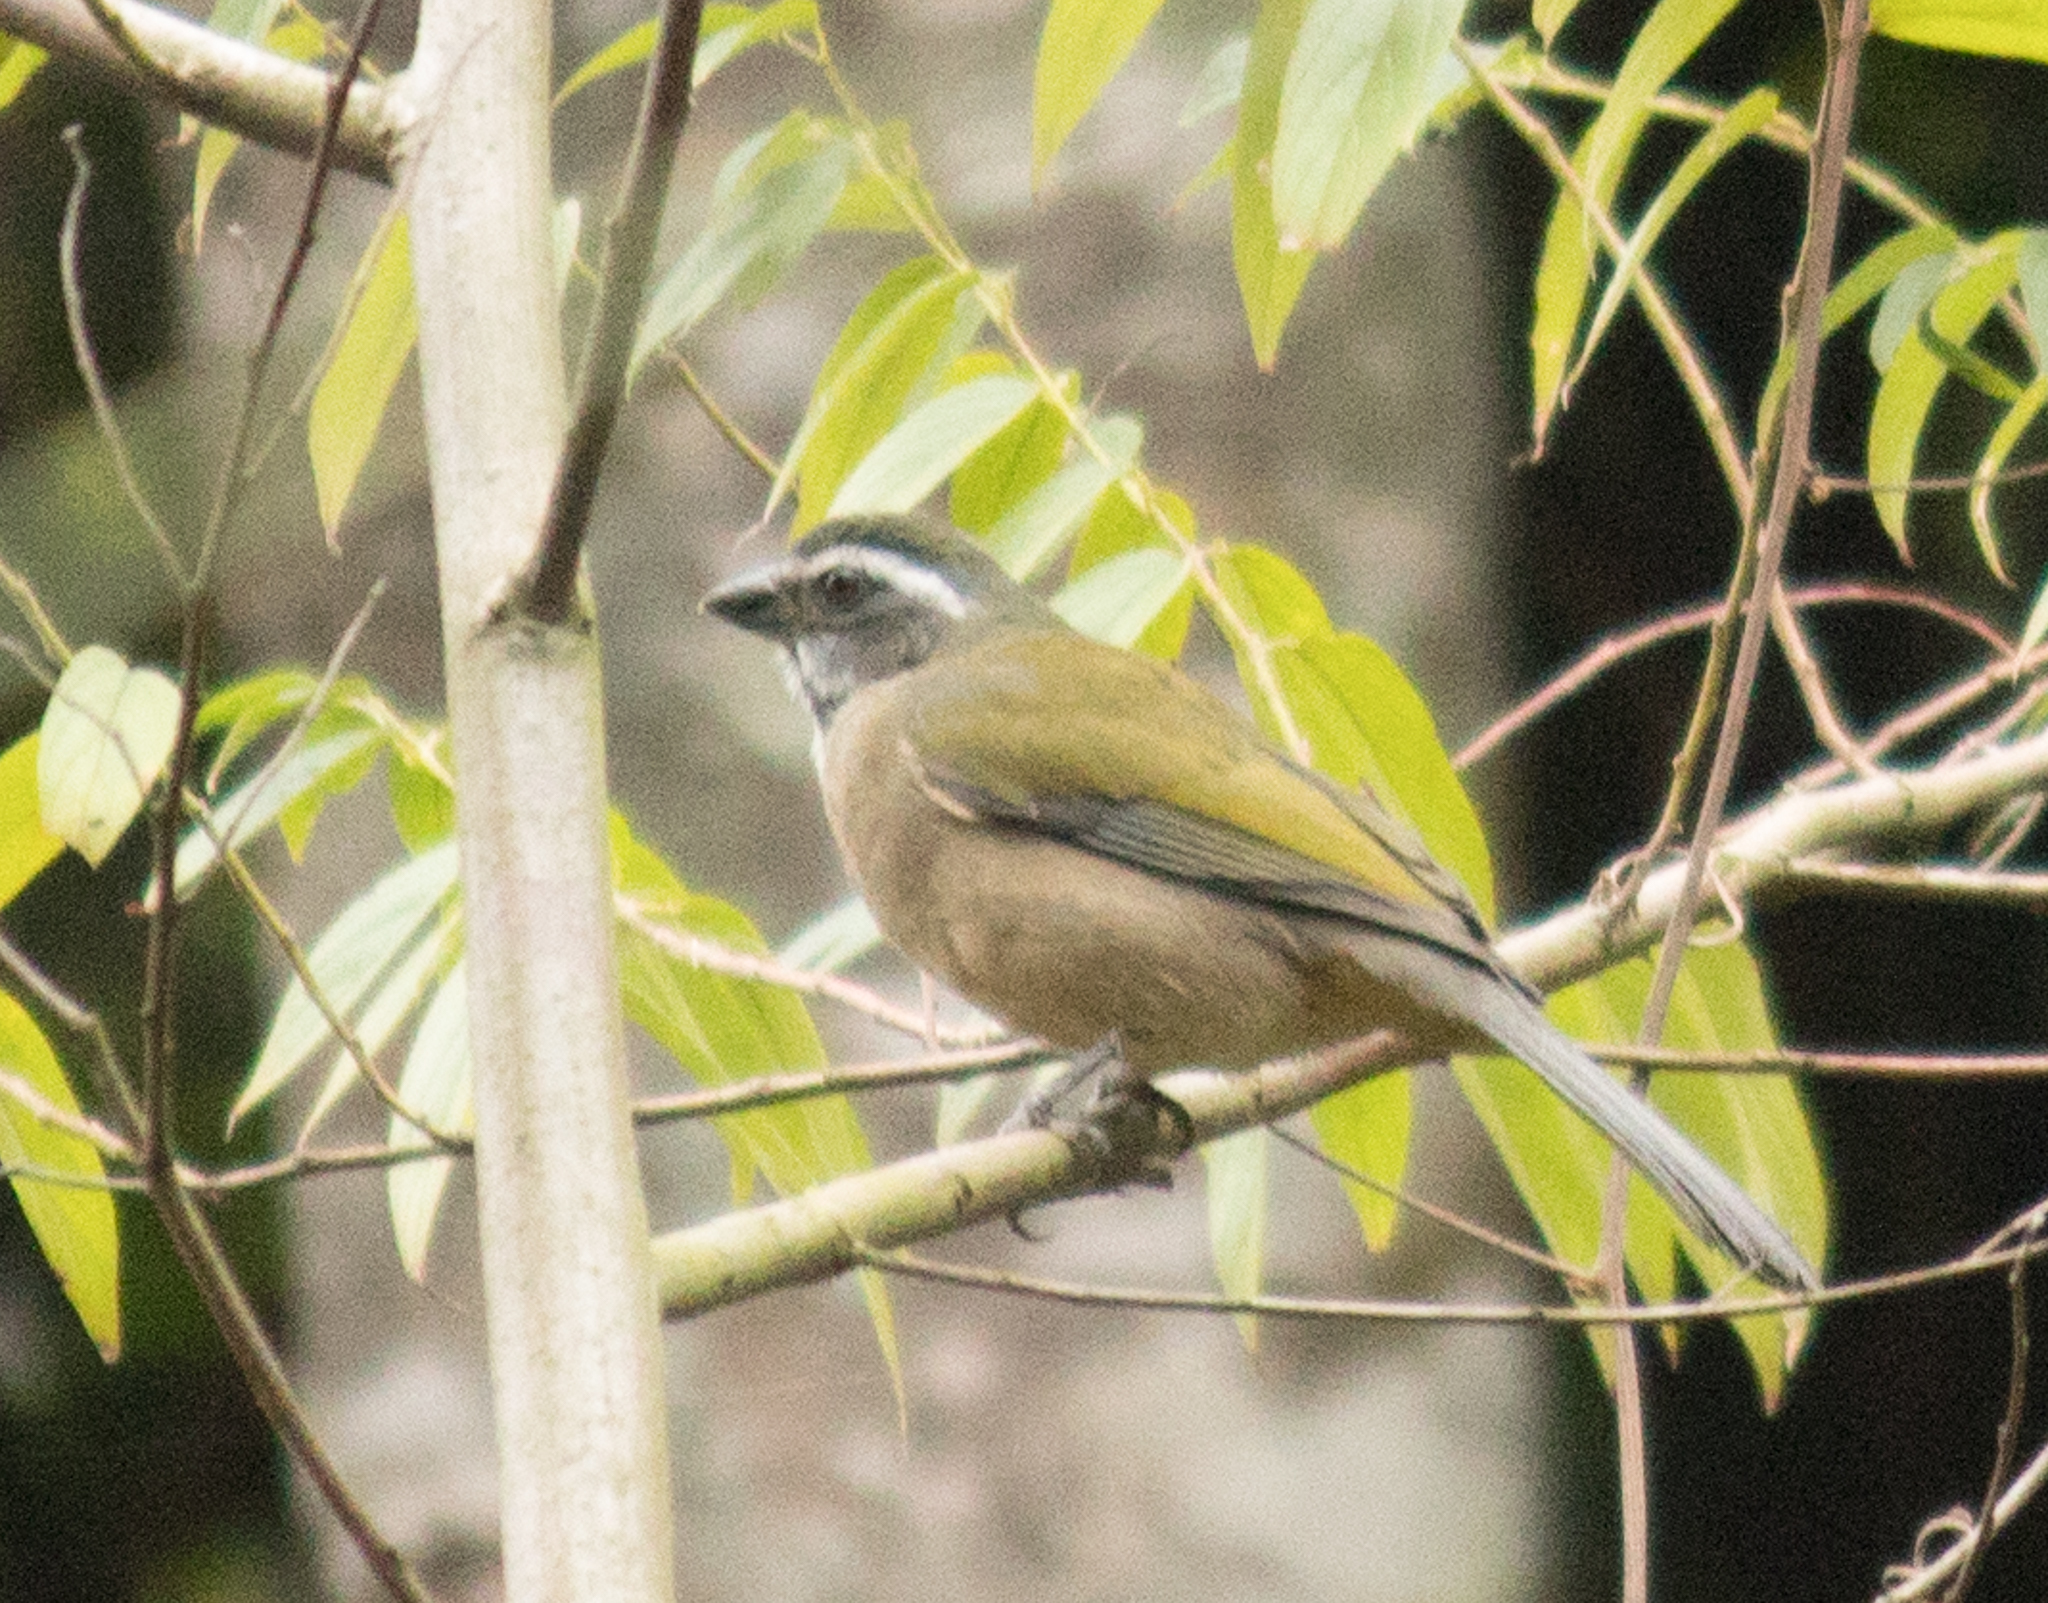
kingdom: Animalia
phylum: Chordata
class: Aves
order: Passeriformes
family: Thraupidae
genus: Saltator
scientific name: Saltator similis
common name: Green-winged saltator
